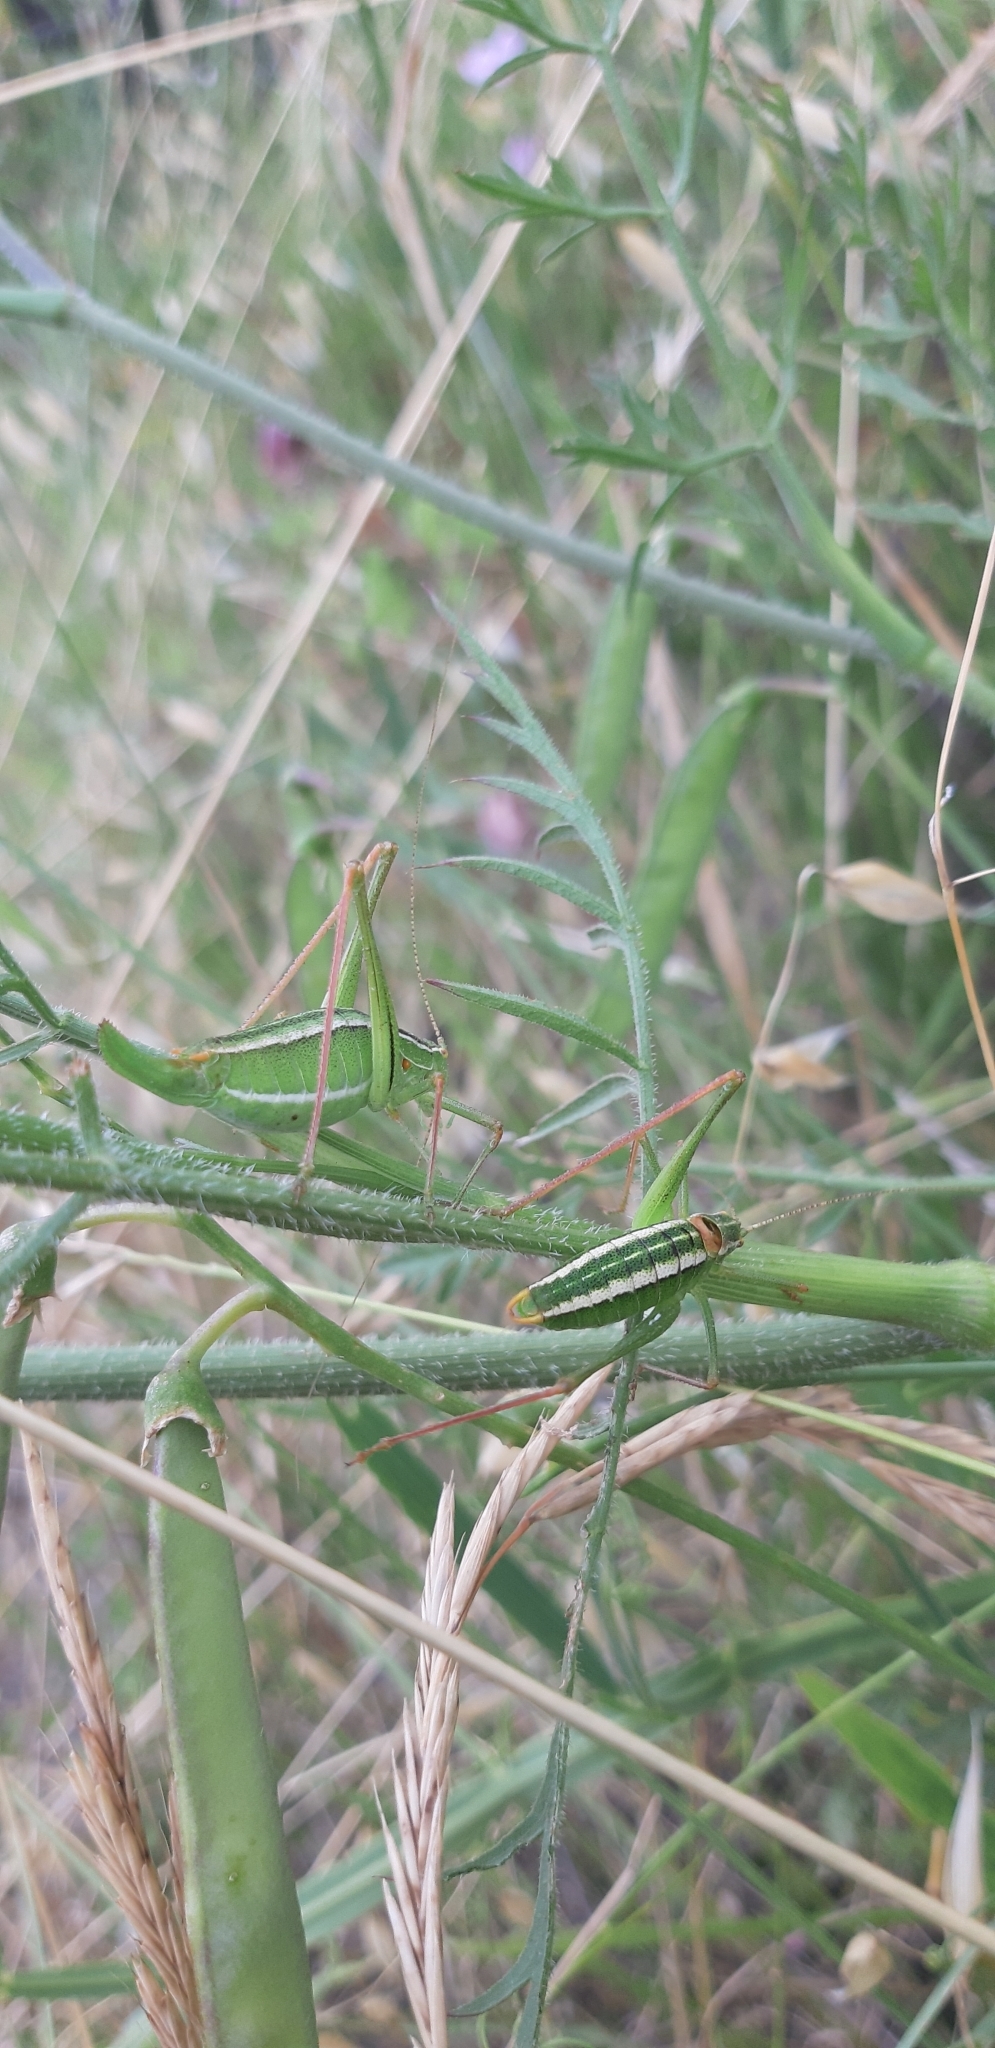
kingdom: Animalia
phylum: Arthropoda
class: Insecta
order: Orthoptera
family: Tettigoniidae
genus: Poecilimon
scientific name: Poecilimon superbus
